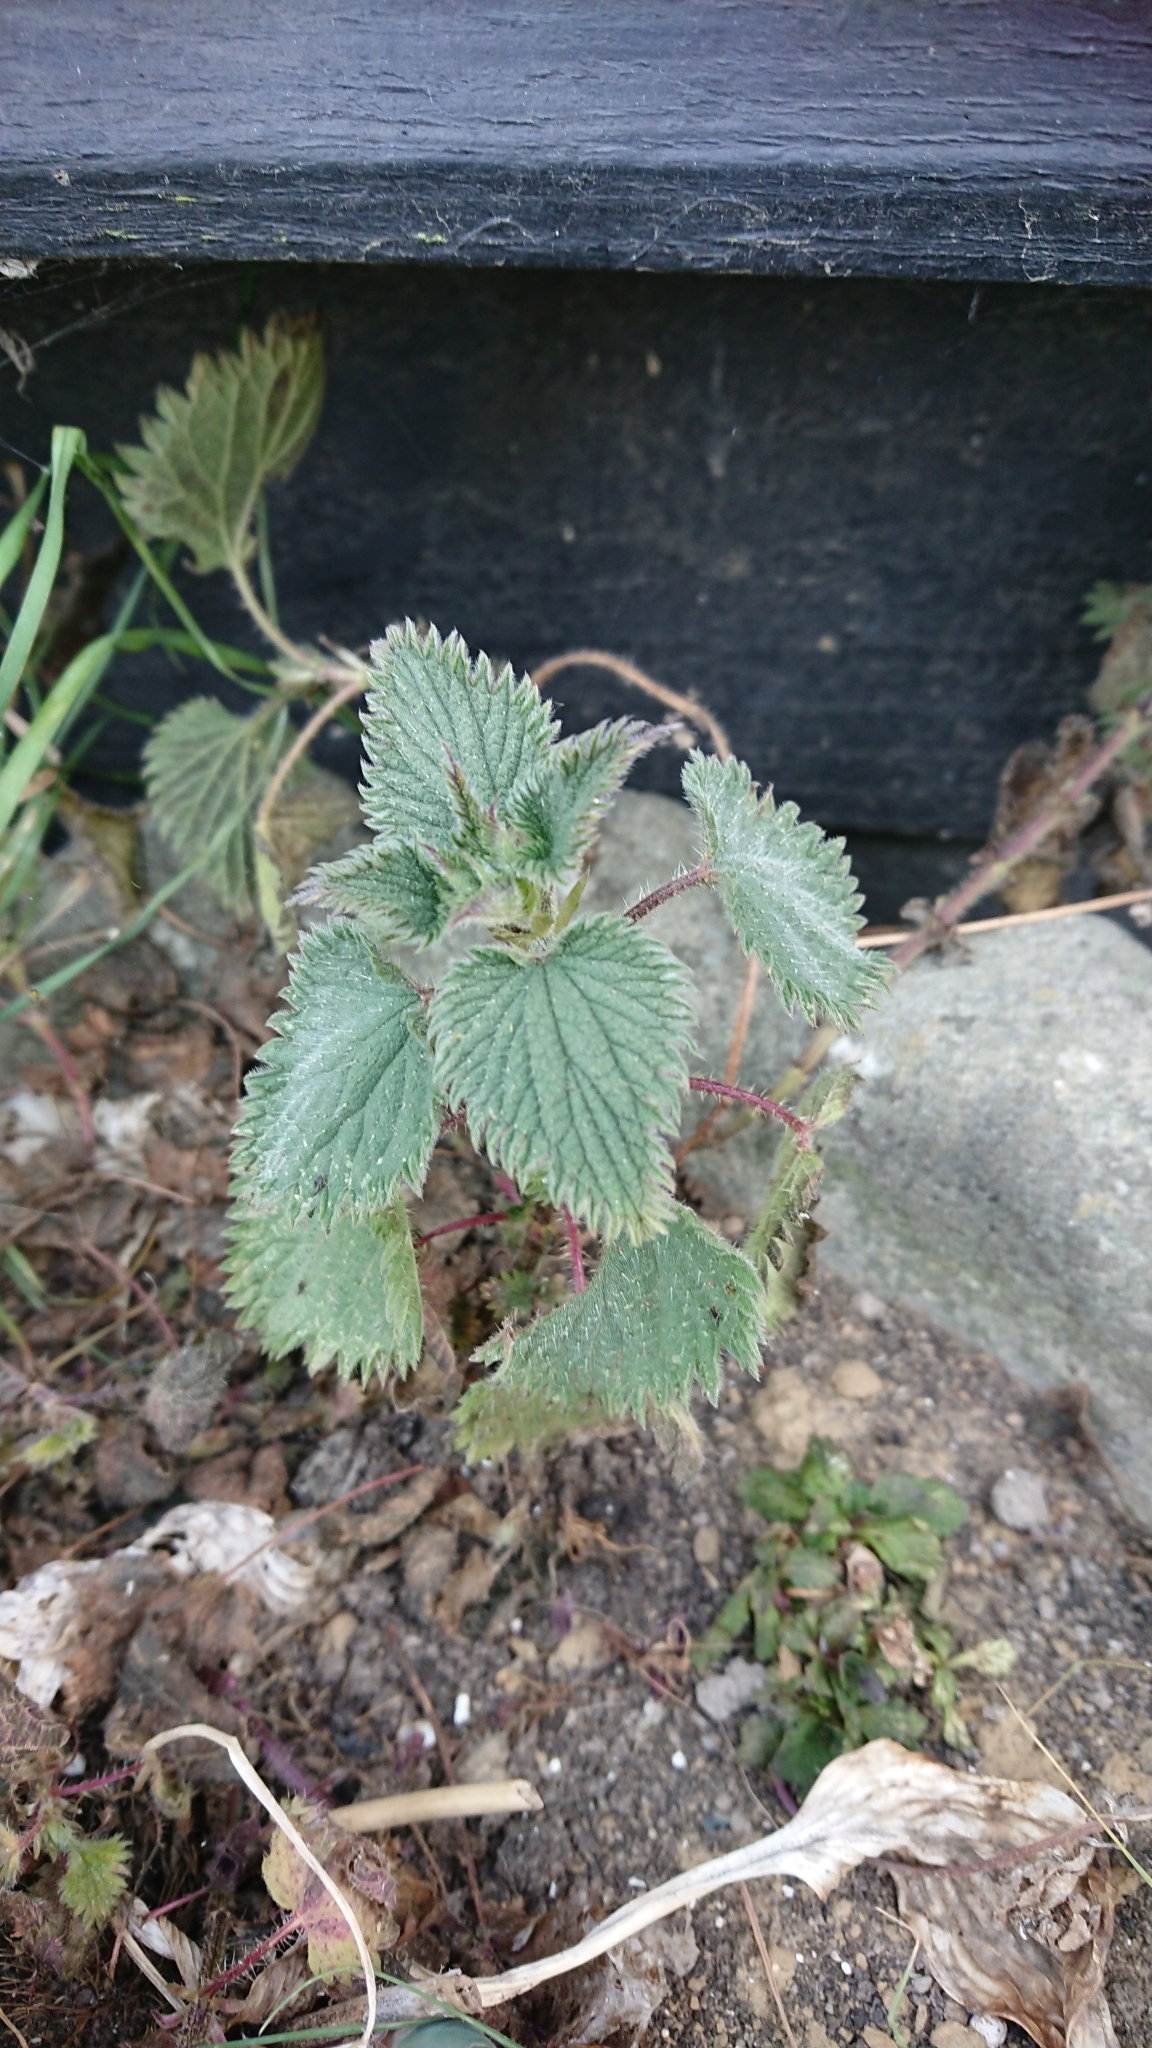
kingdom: Plantae
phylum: Tracheophyta
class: Magnoliopsida
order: Rosales
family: Urticaceae
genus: Urtica
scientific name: Urtica dioica
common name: Common nettle
